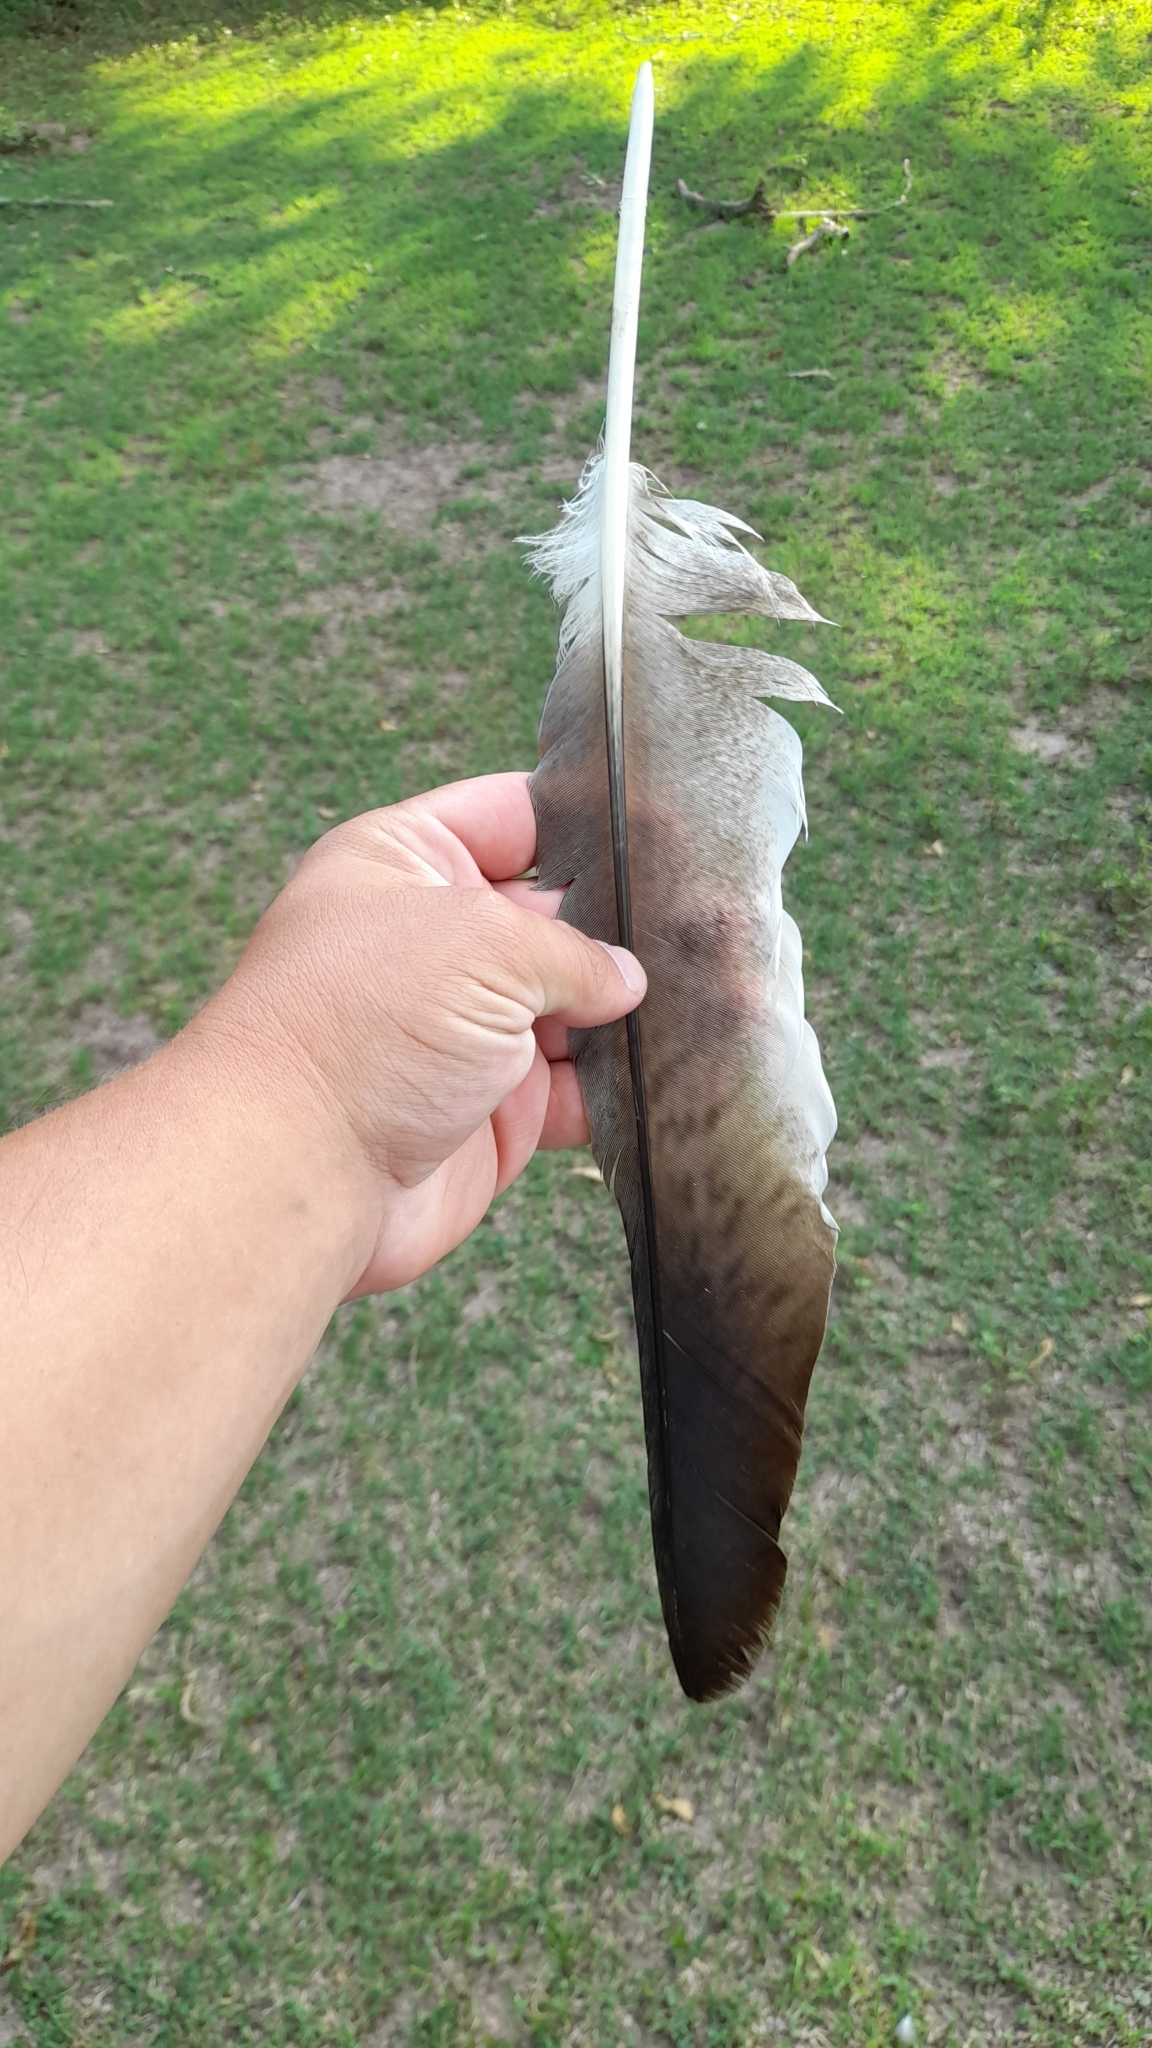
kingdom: Animalia
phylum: Chordata
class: Aves
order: Accipitriformes
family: Accipitridae
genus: Harpyhaliaetus
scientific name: Harpyhaliaetus coronatus
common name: Crowned solitary eagle
